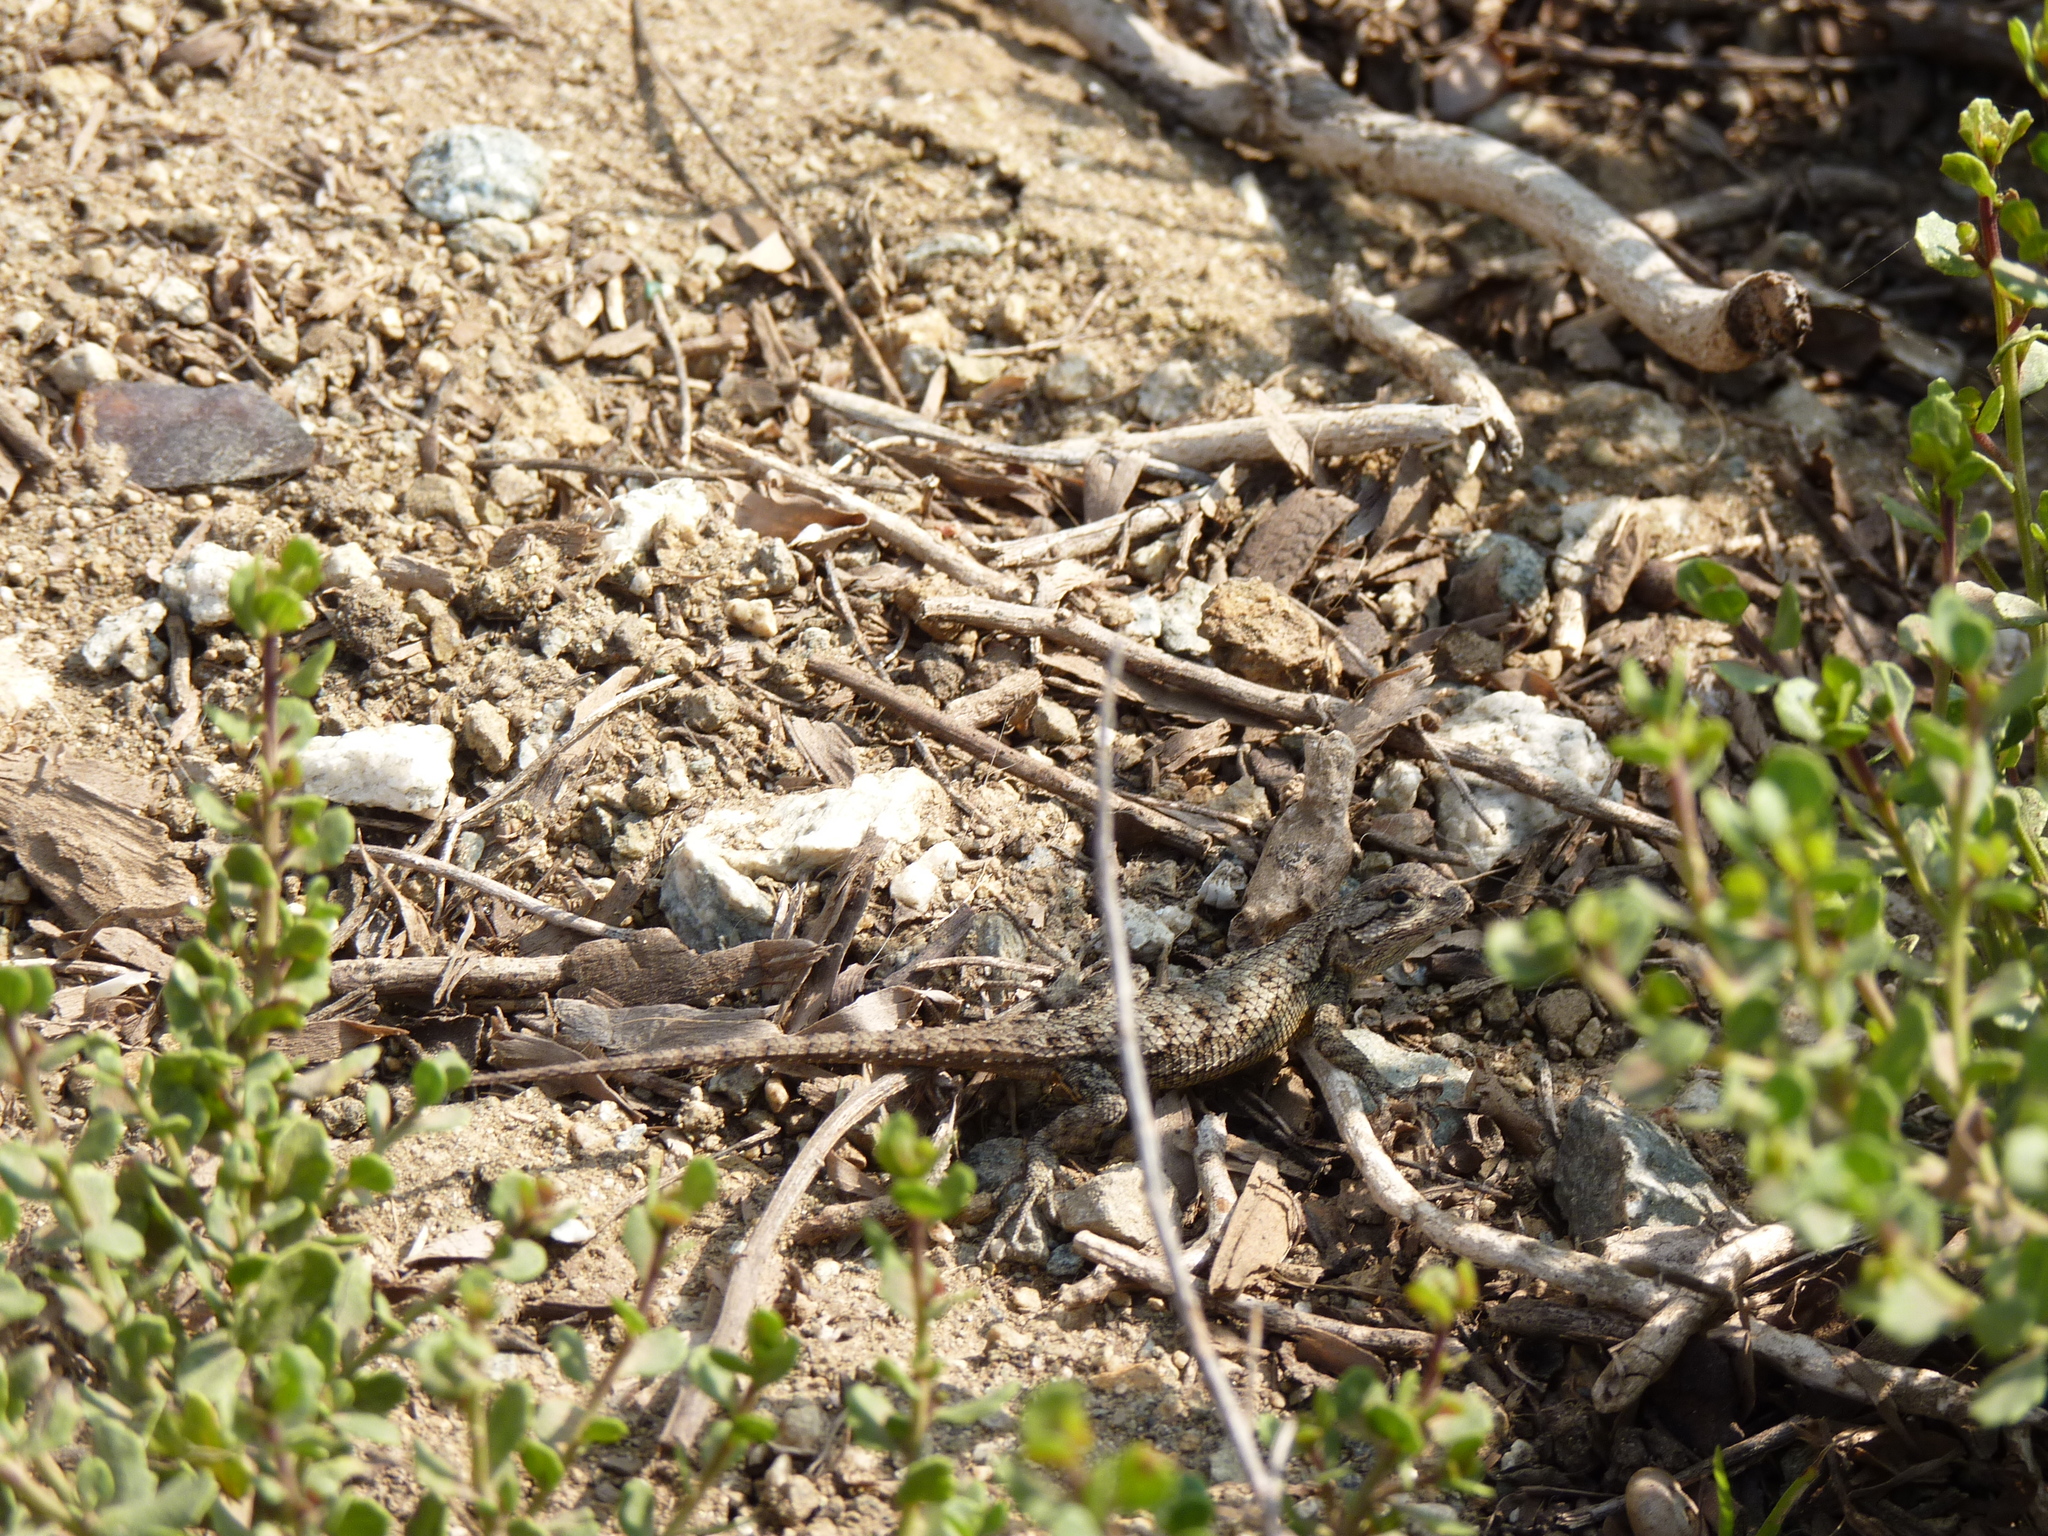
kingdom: Animalia
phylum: Chordata
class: Squamata
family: Phrynosomatidae
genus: Sceloporus
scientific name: Sceloporus occidentalis
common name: Western fence lizard
